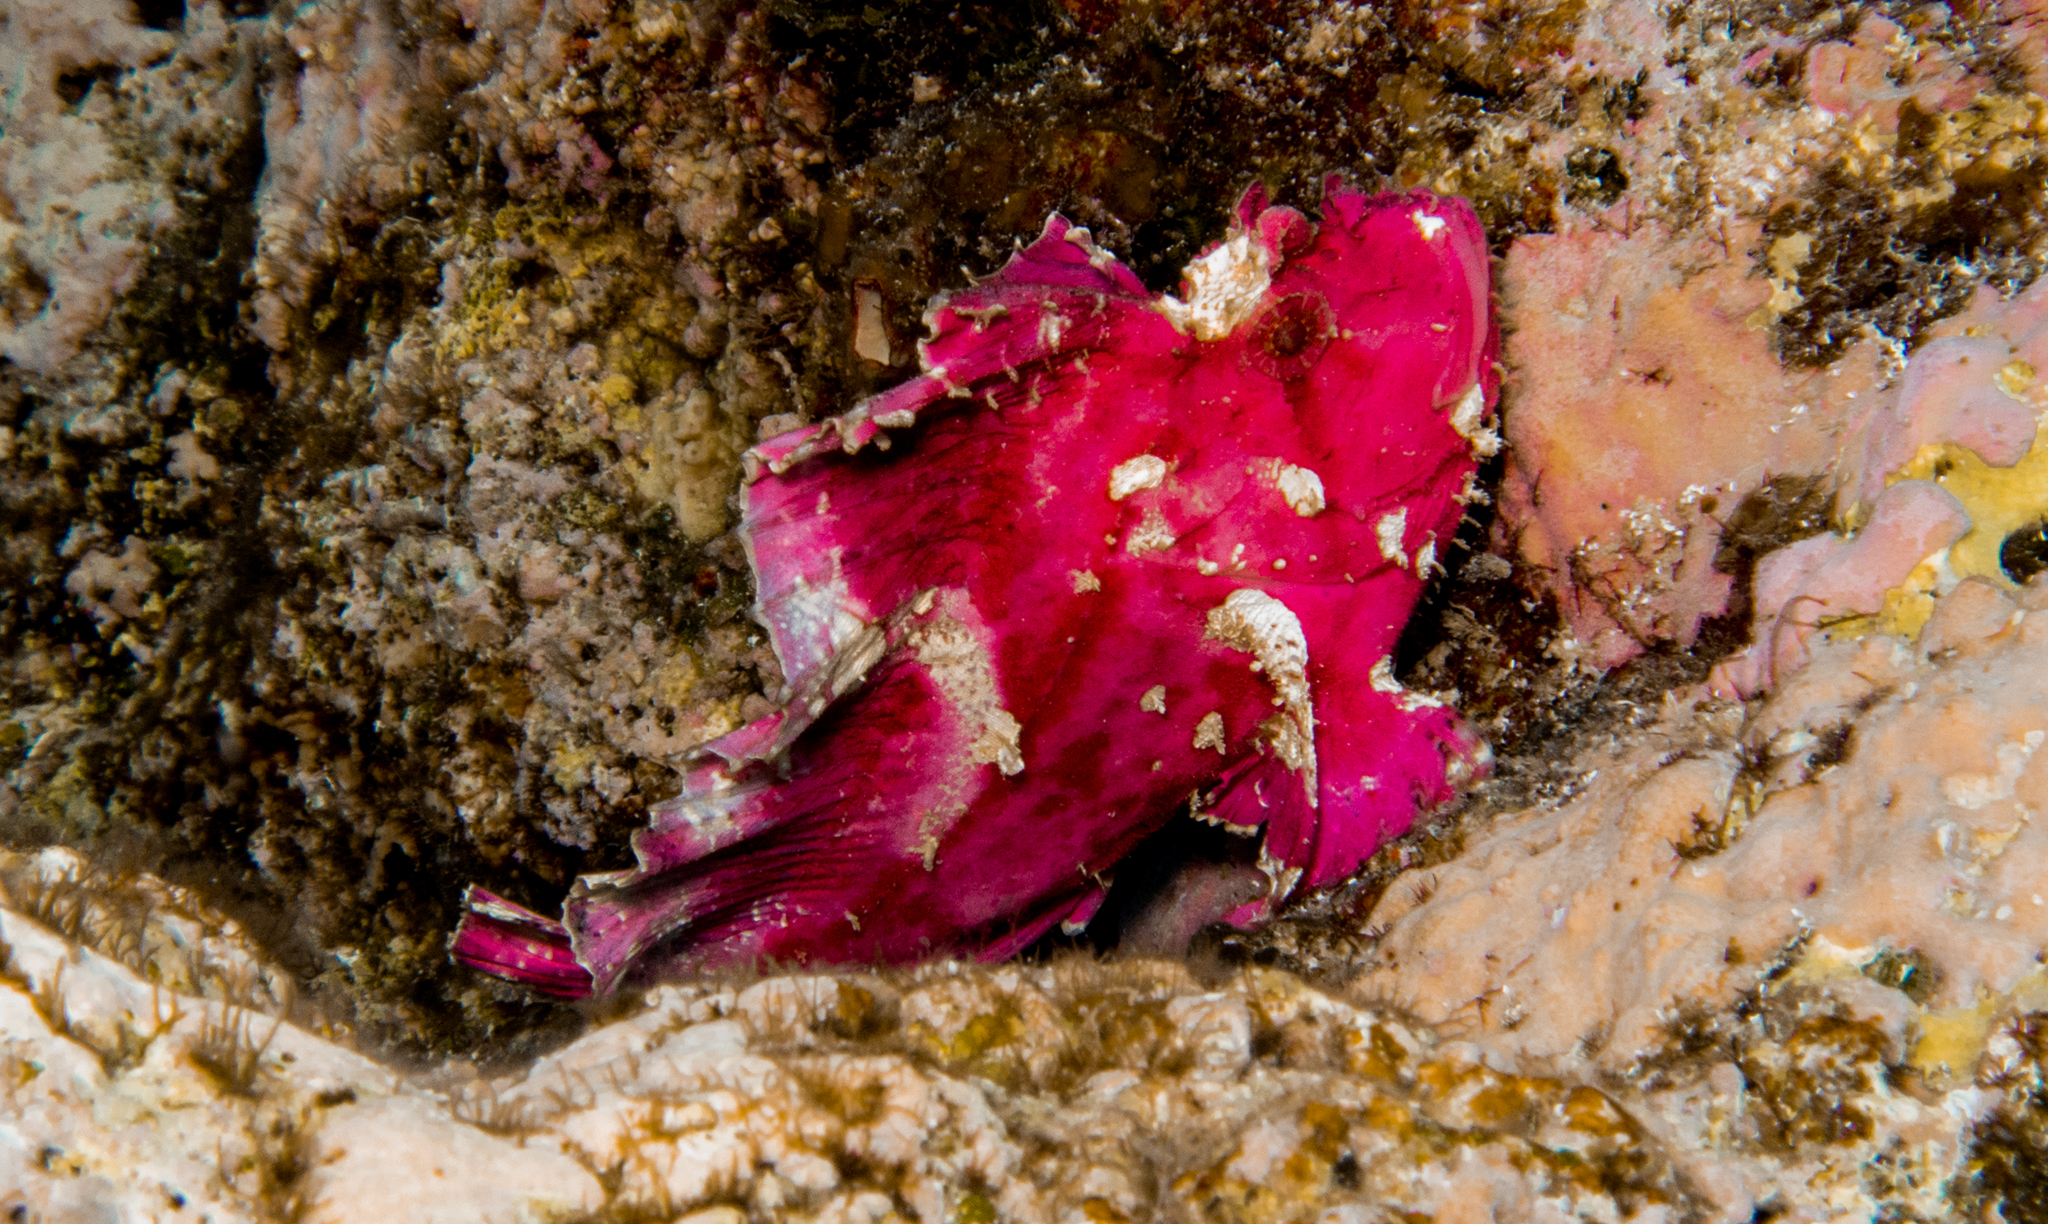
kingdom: Animalia
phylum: Chordata
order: Scorpaeniformes
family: Scorpaenidae
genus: Taenianotus
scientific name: Taenianotus triacanthus
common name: Leaf scorpionfish
